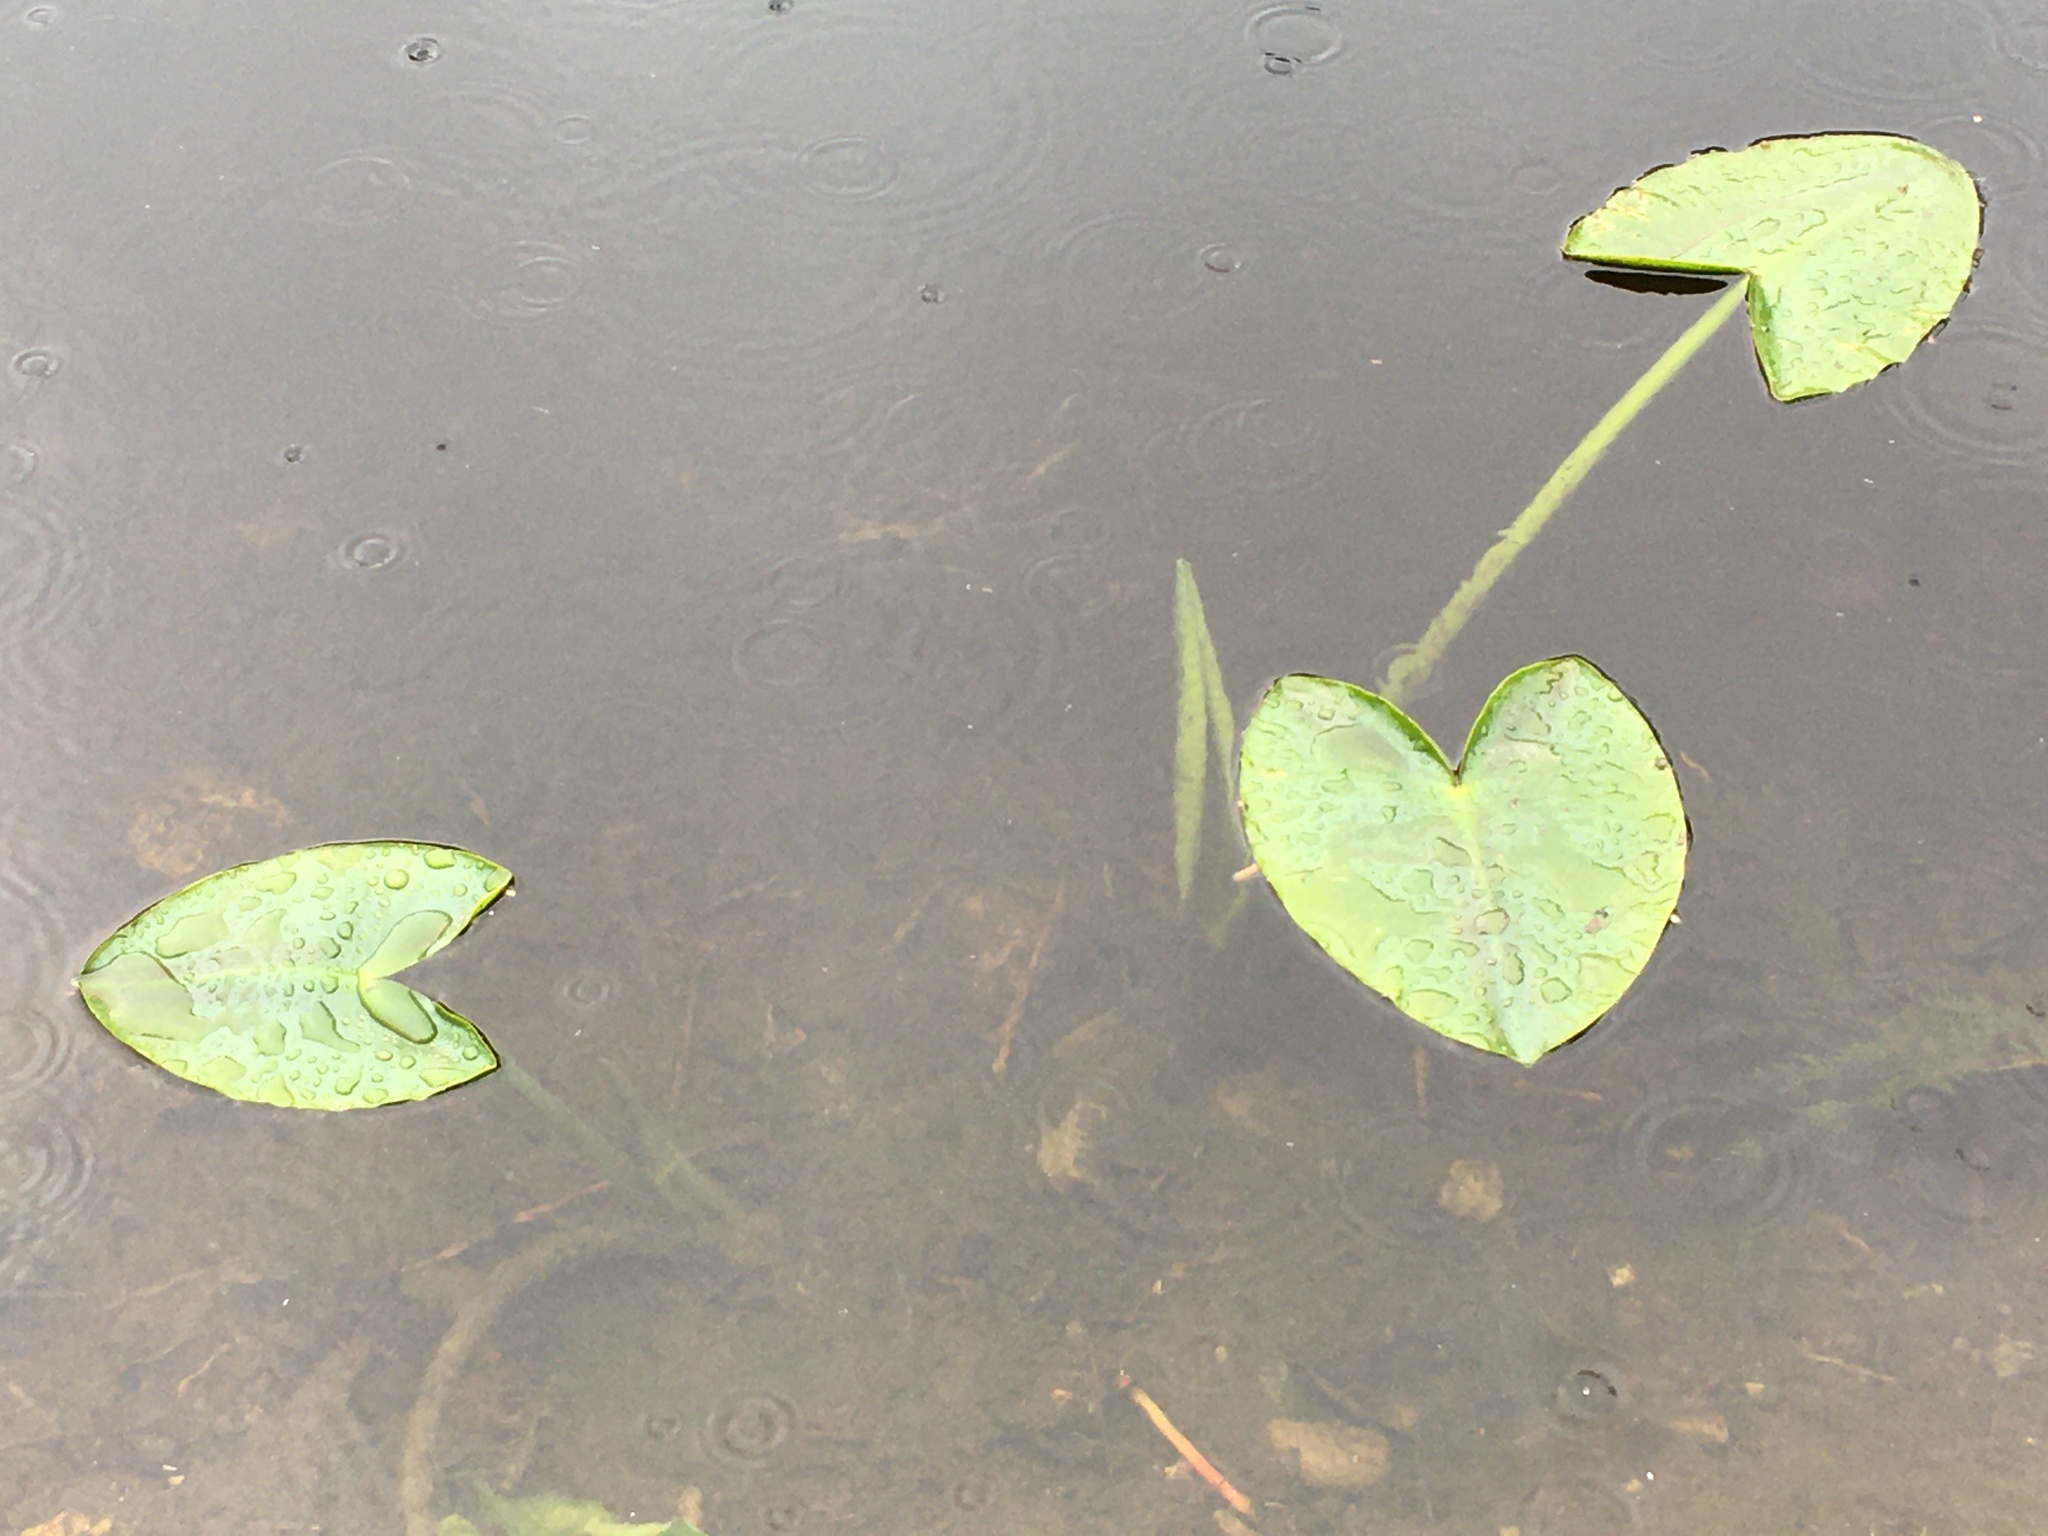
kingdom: Plantae
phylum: Tracheophyta
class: Magnoliopsida
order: Nymphaeales
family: Nymphaeaceae
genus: Nuphar
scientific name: Nuphar polysepala
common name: Rocky mountain cow-lily
